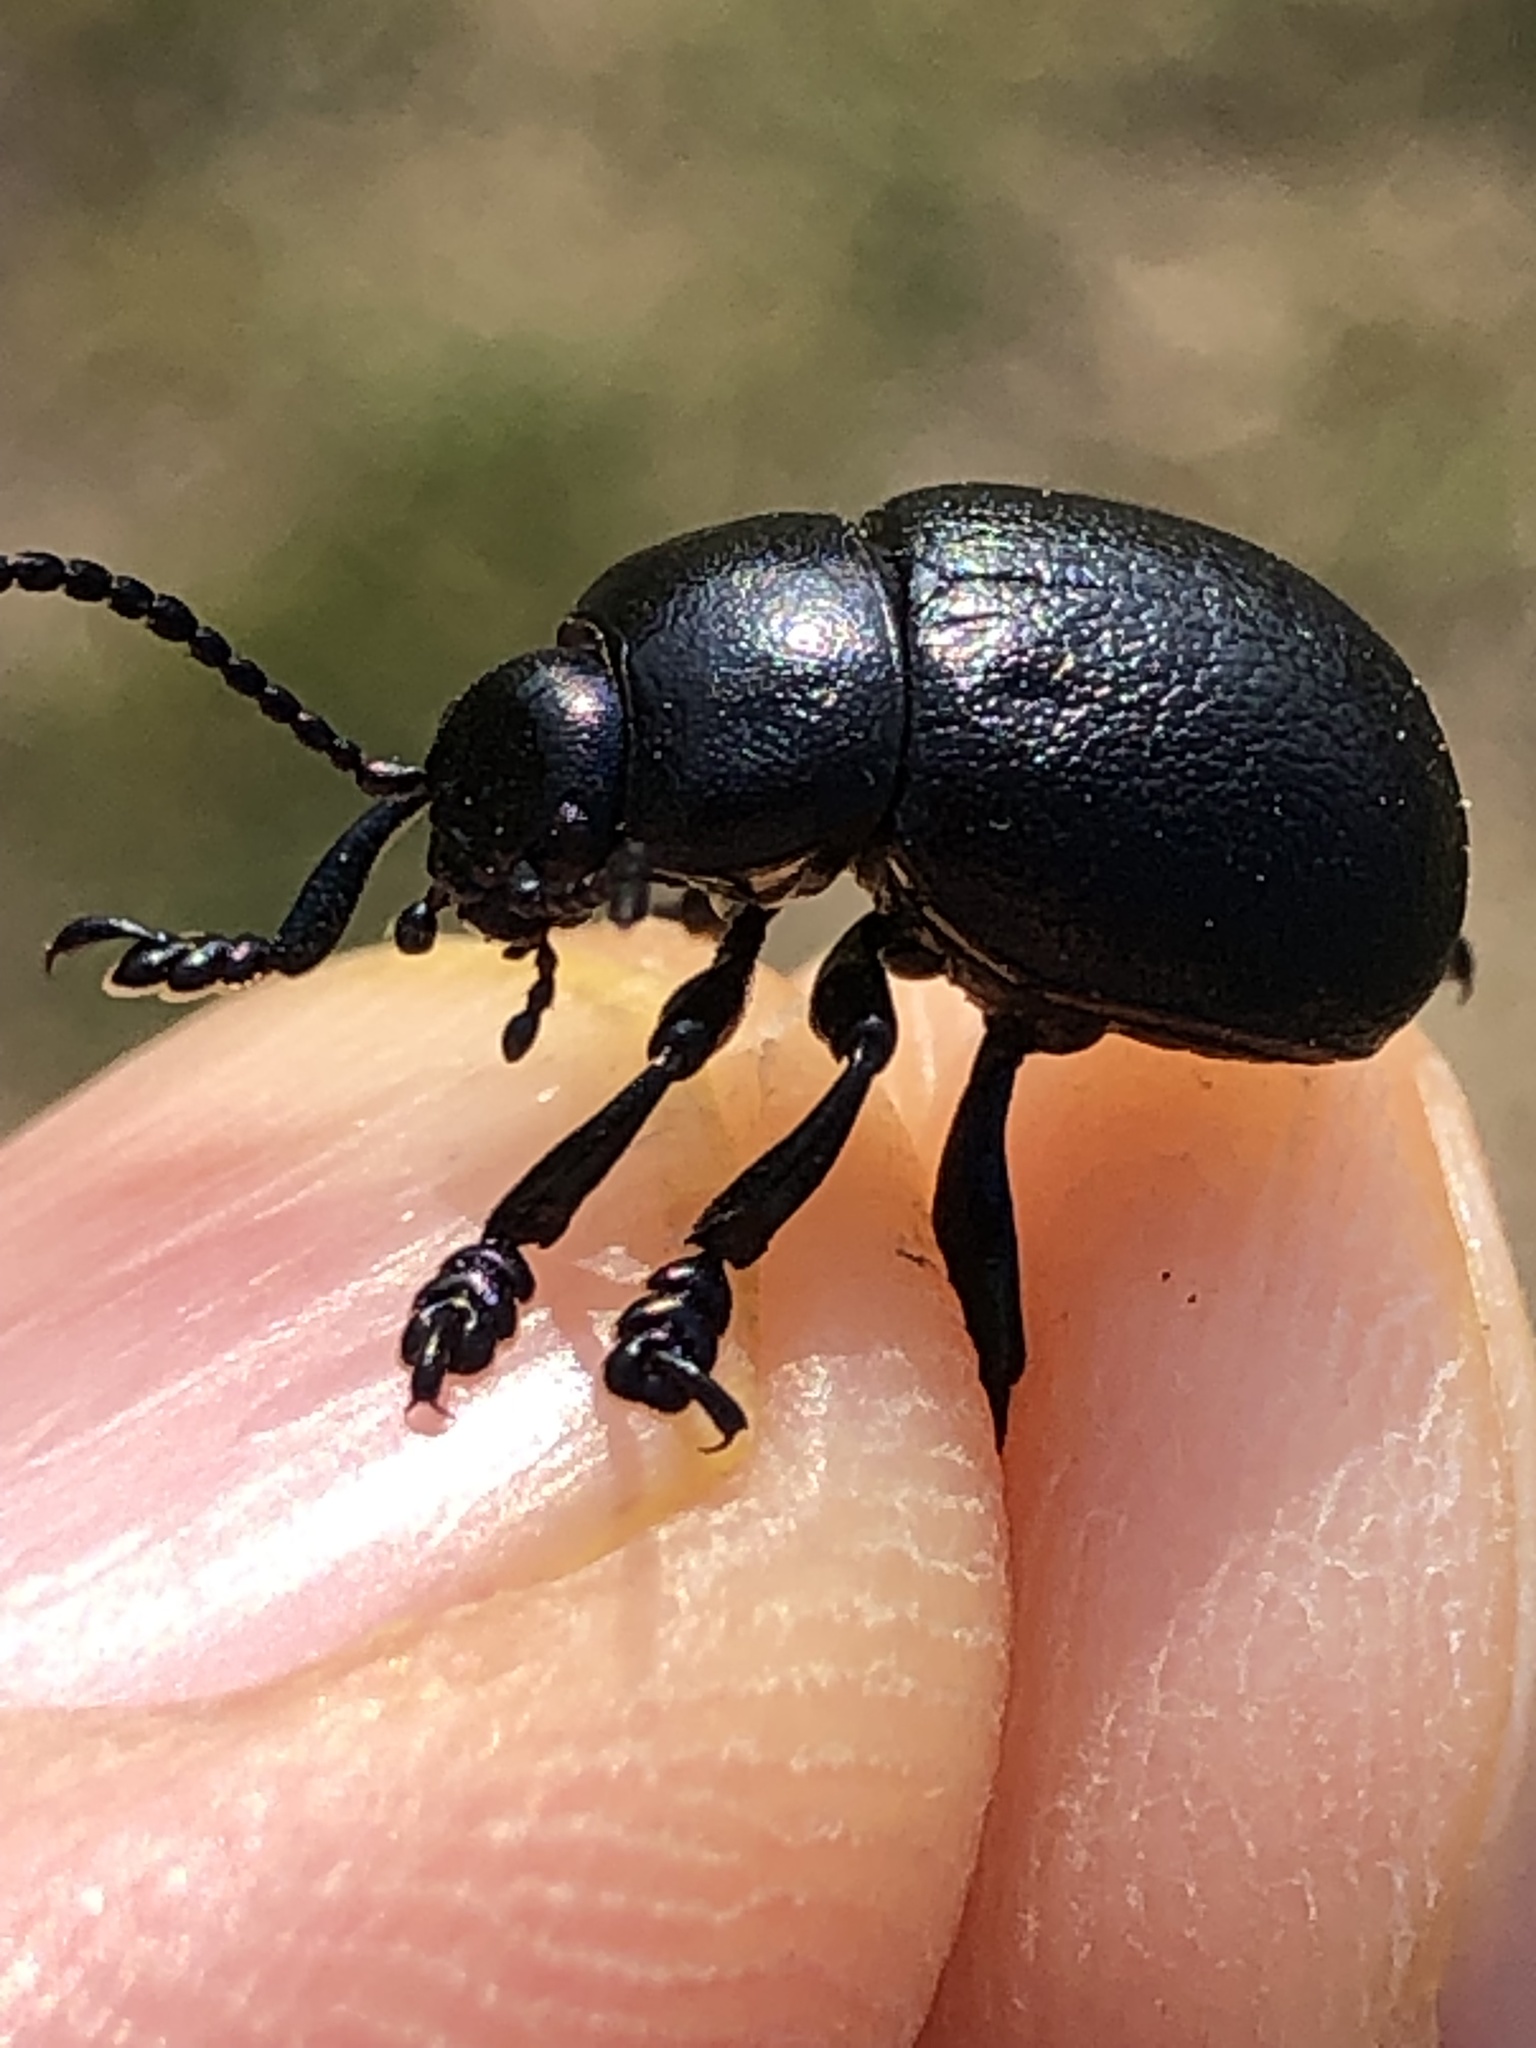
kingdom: Animalia
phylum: Arthropoda
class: Insecta
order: Coleoptera
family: Chrysomelidae
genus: Timarcha
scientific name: Timarcha goettingensis
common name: Small bloody-nosed beetle
